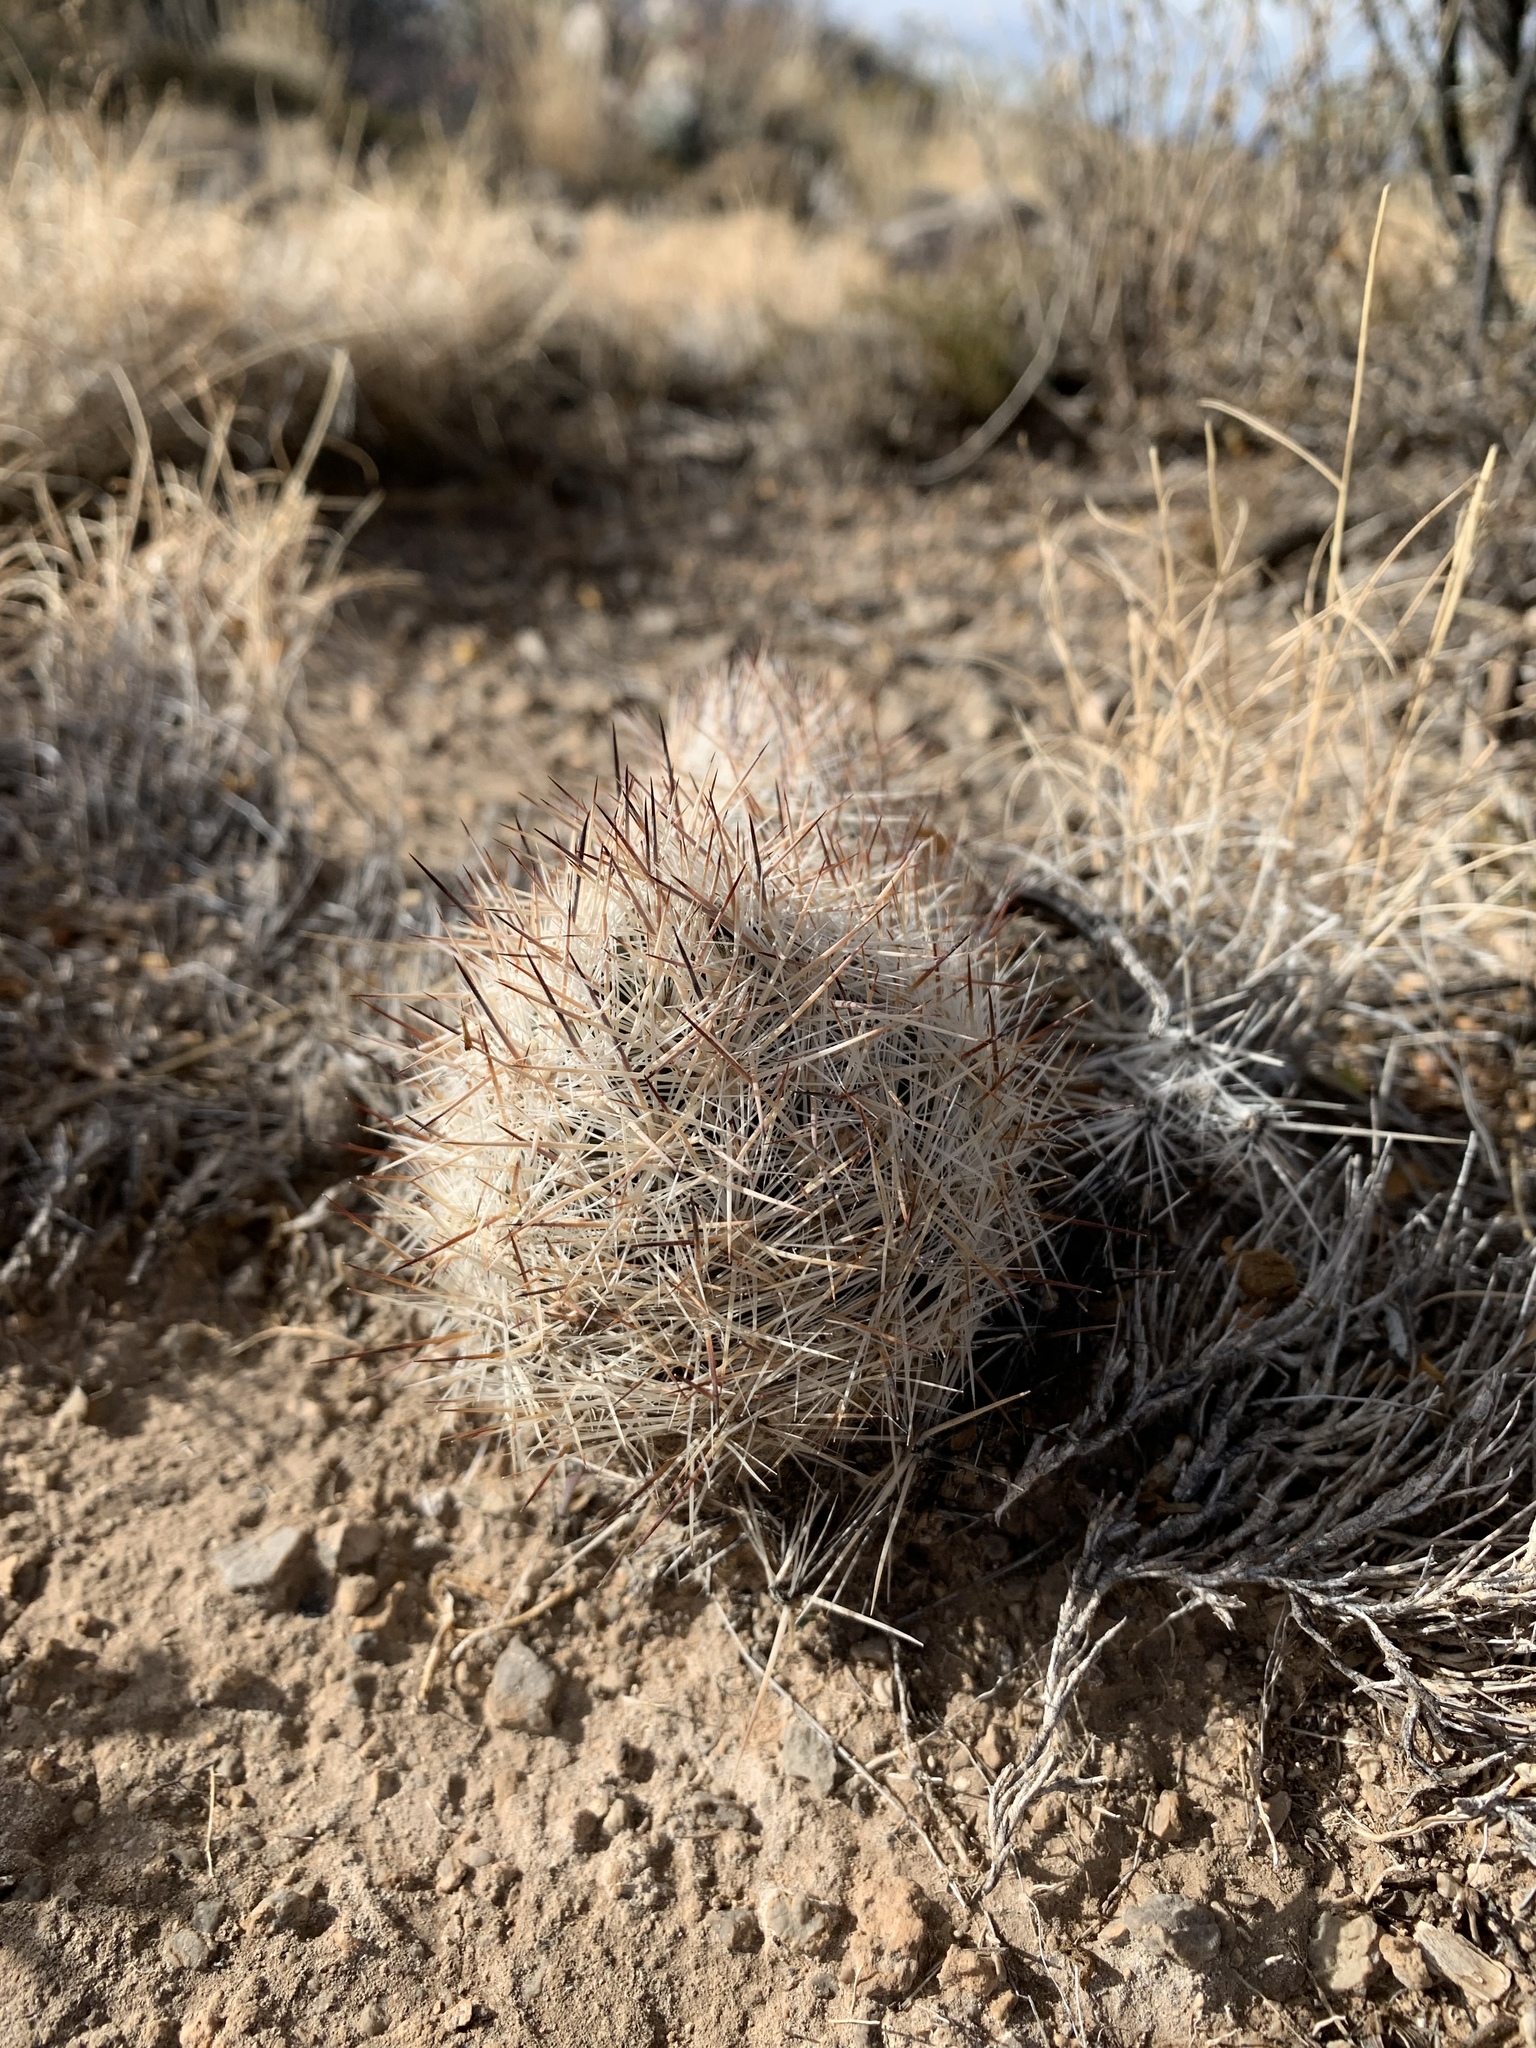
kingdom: Plantae
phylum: Tracheophyta
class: Magnoliopsida
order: Caryophyllales
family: Cactaceae
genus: Pelecyphora
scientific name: Pelecyphora vivipara
